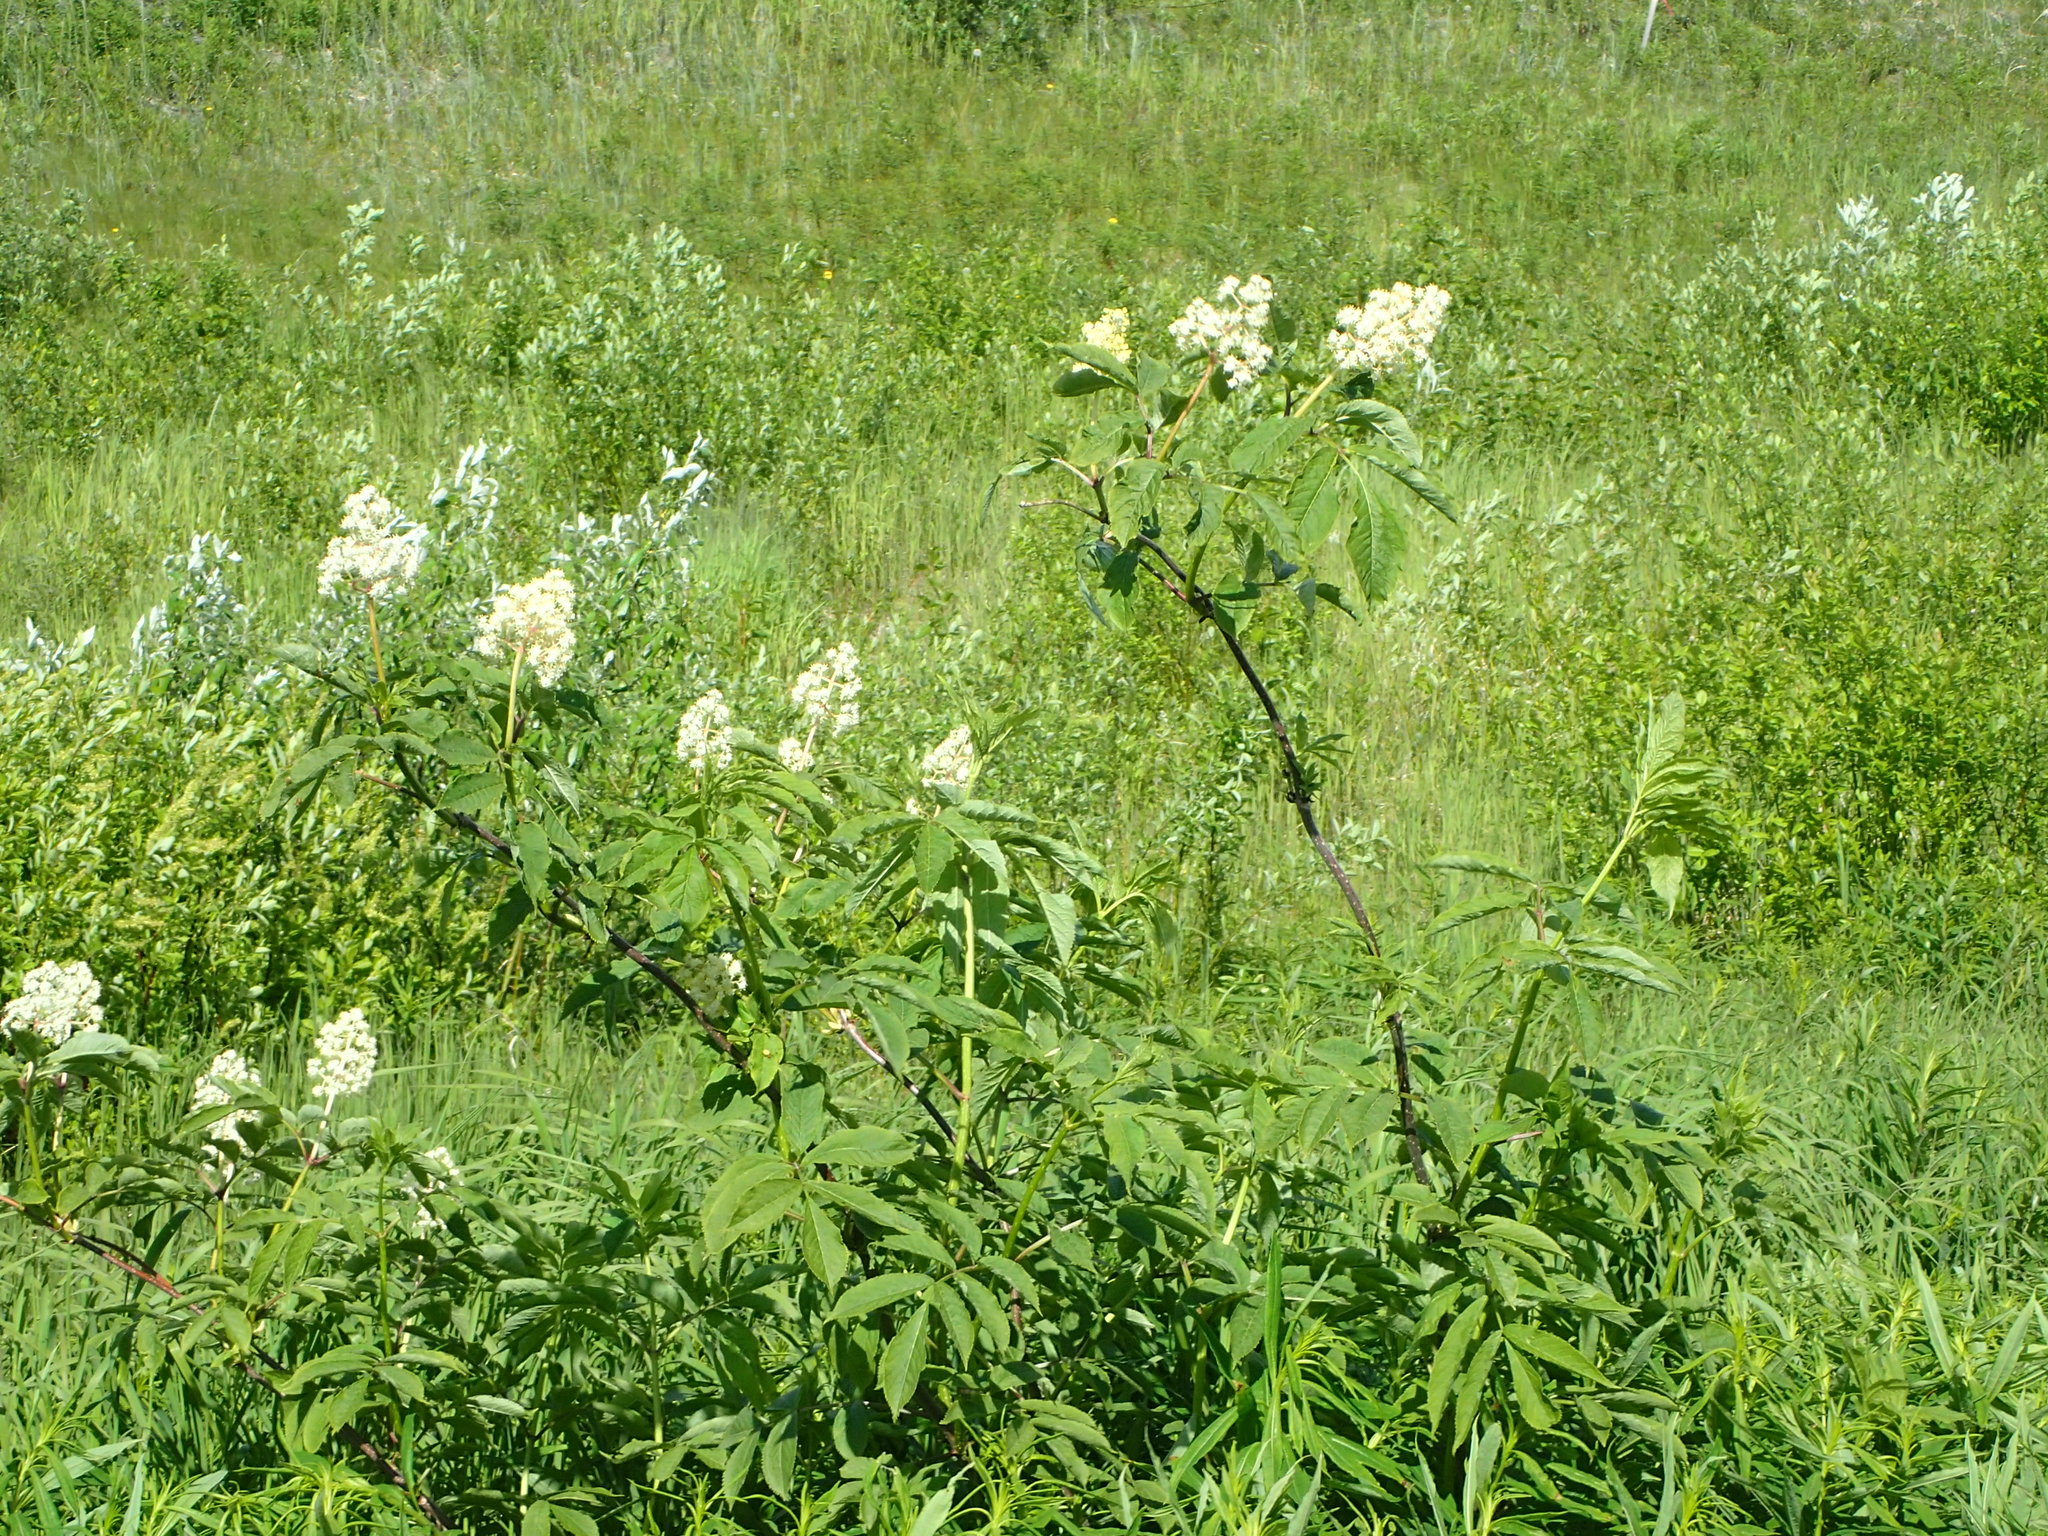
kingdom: Plantae
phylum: Tracheophyta
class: Magnoliopsida
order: Dipsacales
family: Viburnaceae
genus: Sambucus
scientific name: Sambucus racemosa
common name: Red-berried elder
